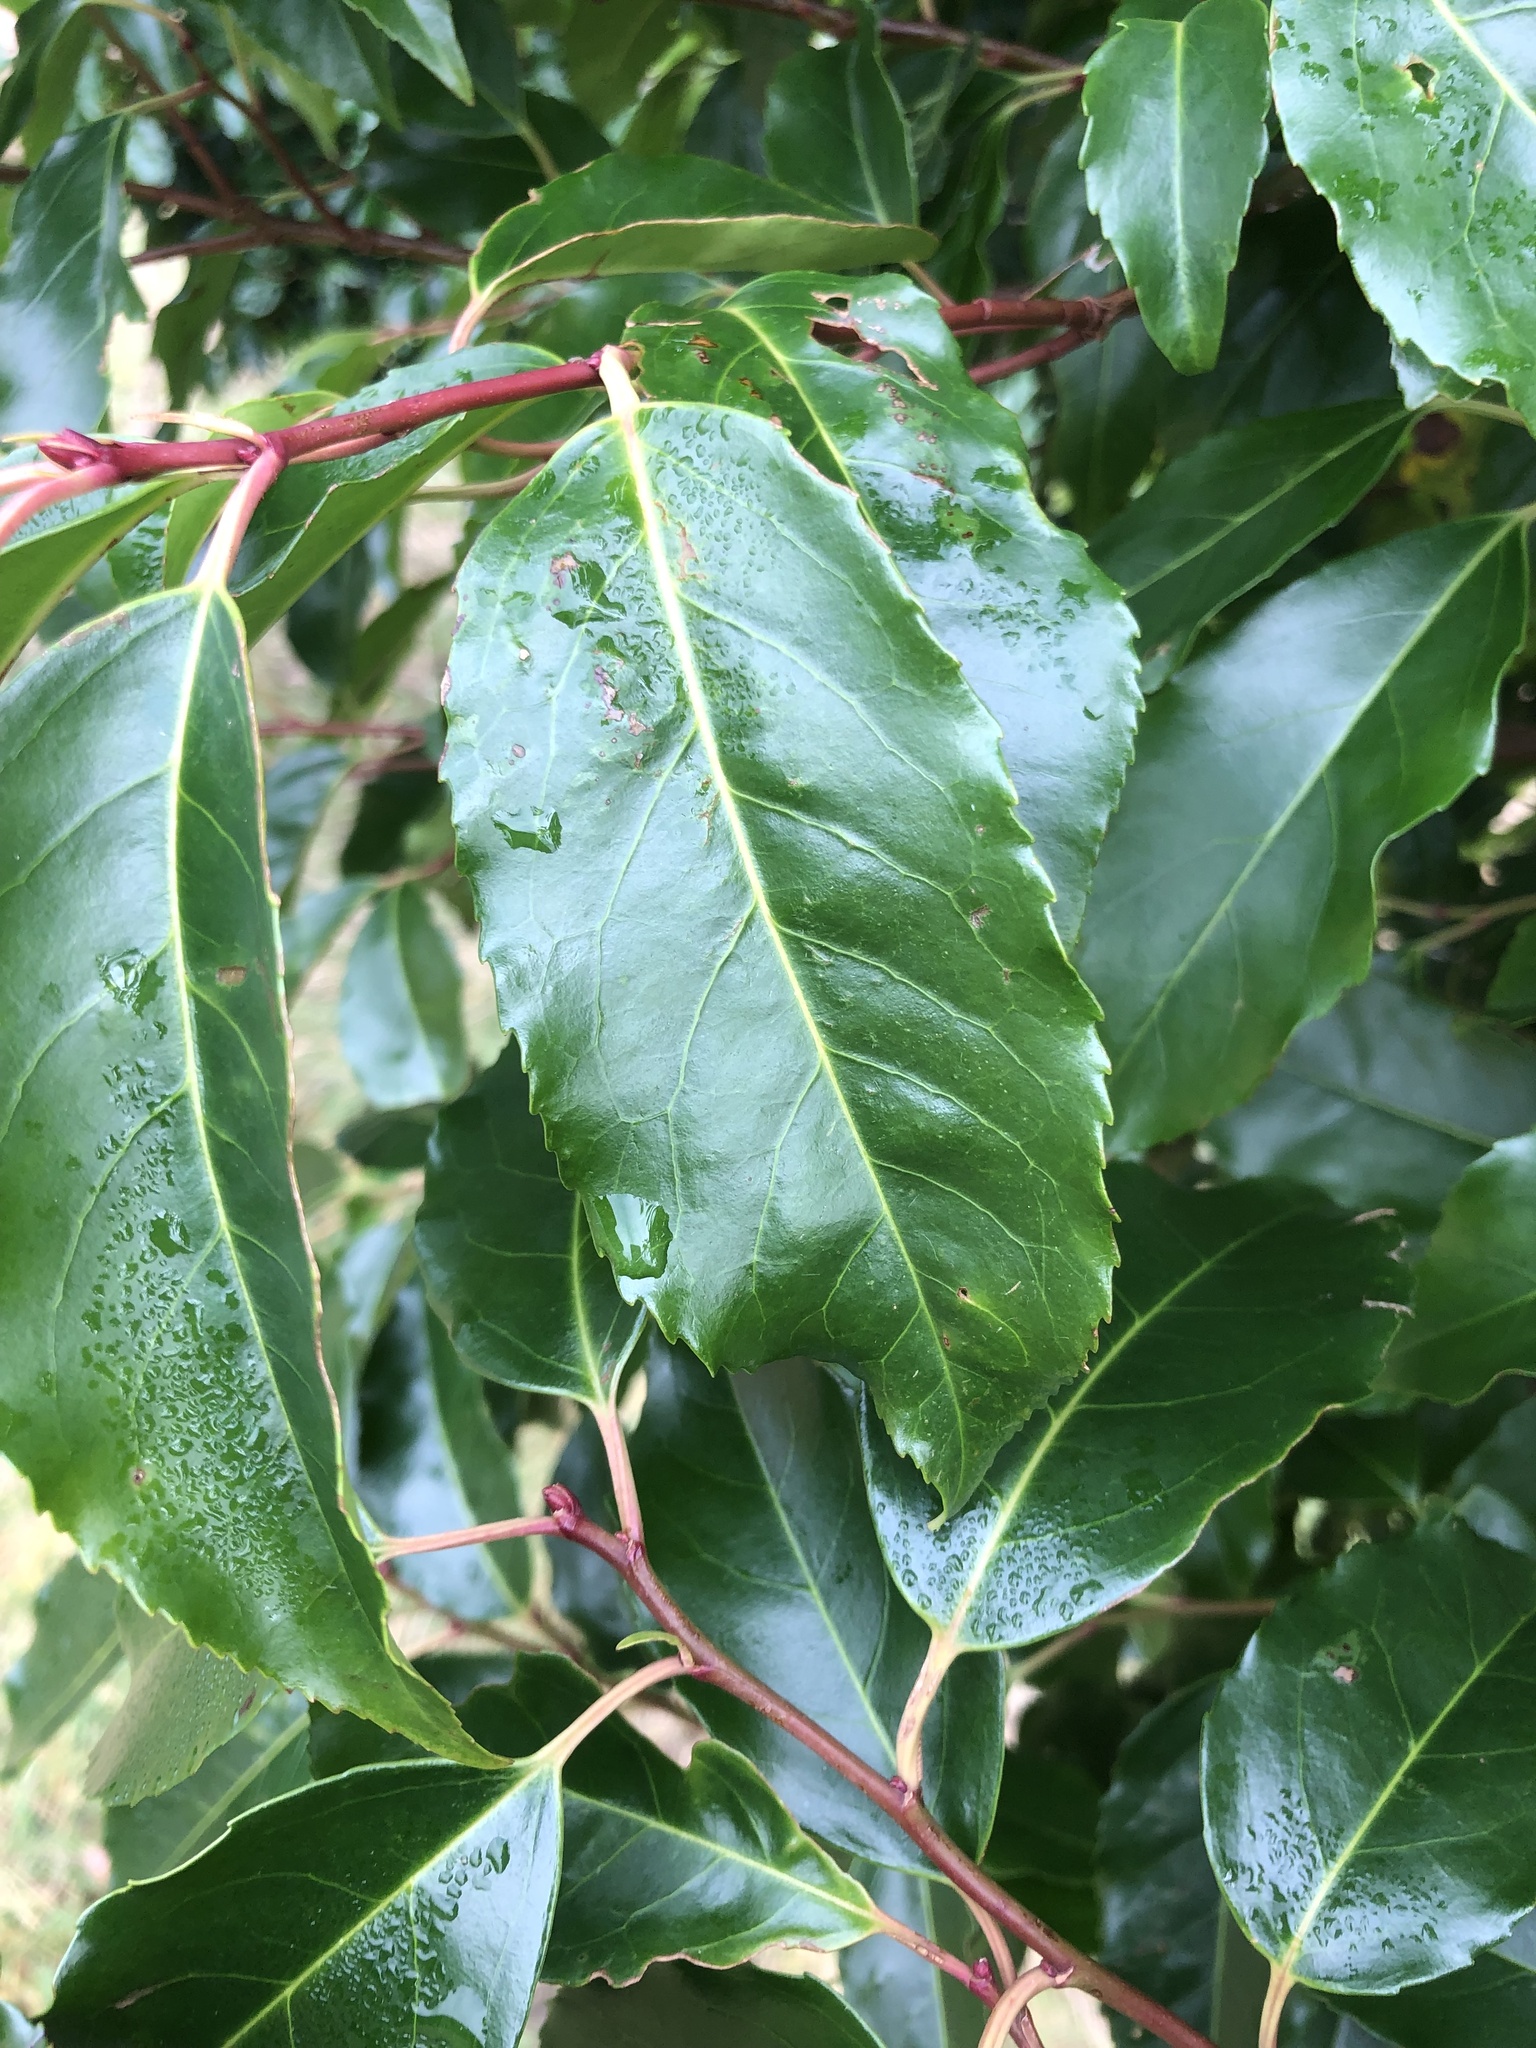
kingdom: Plantae
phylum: Tracheophyta
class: Magnoliopsida
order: Rosales
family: Rosaceae
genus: Prunus
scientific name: Prunus lusitanica
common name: Portugal laurel
